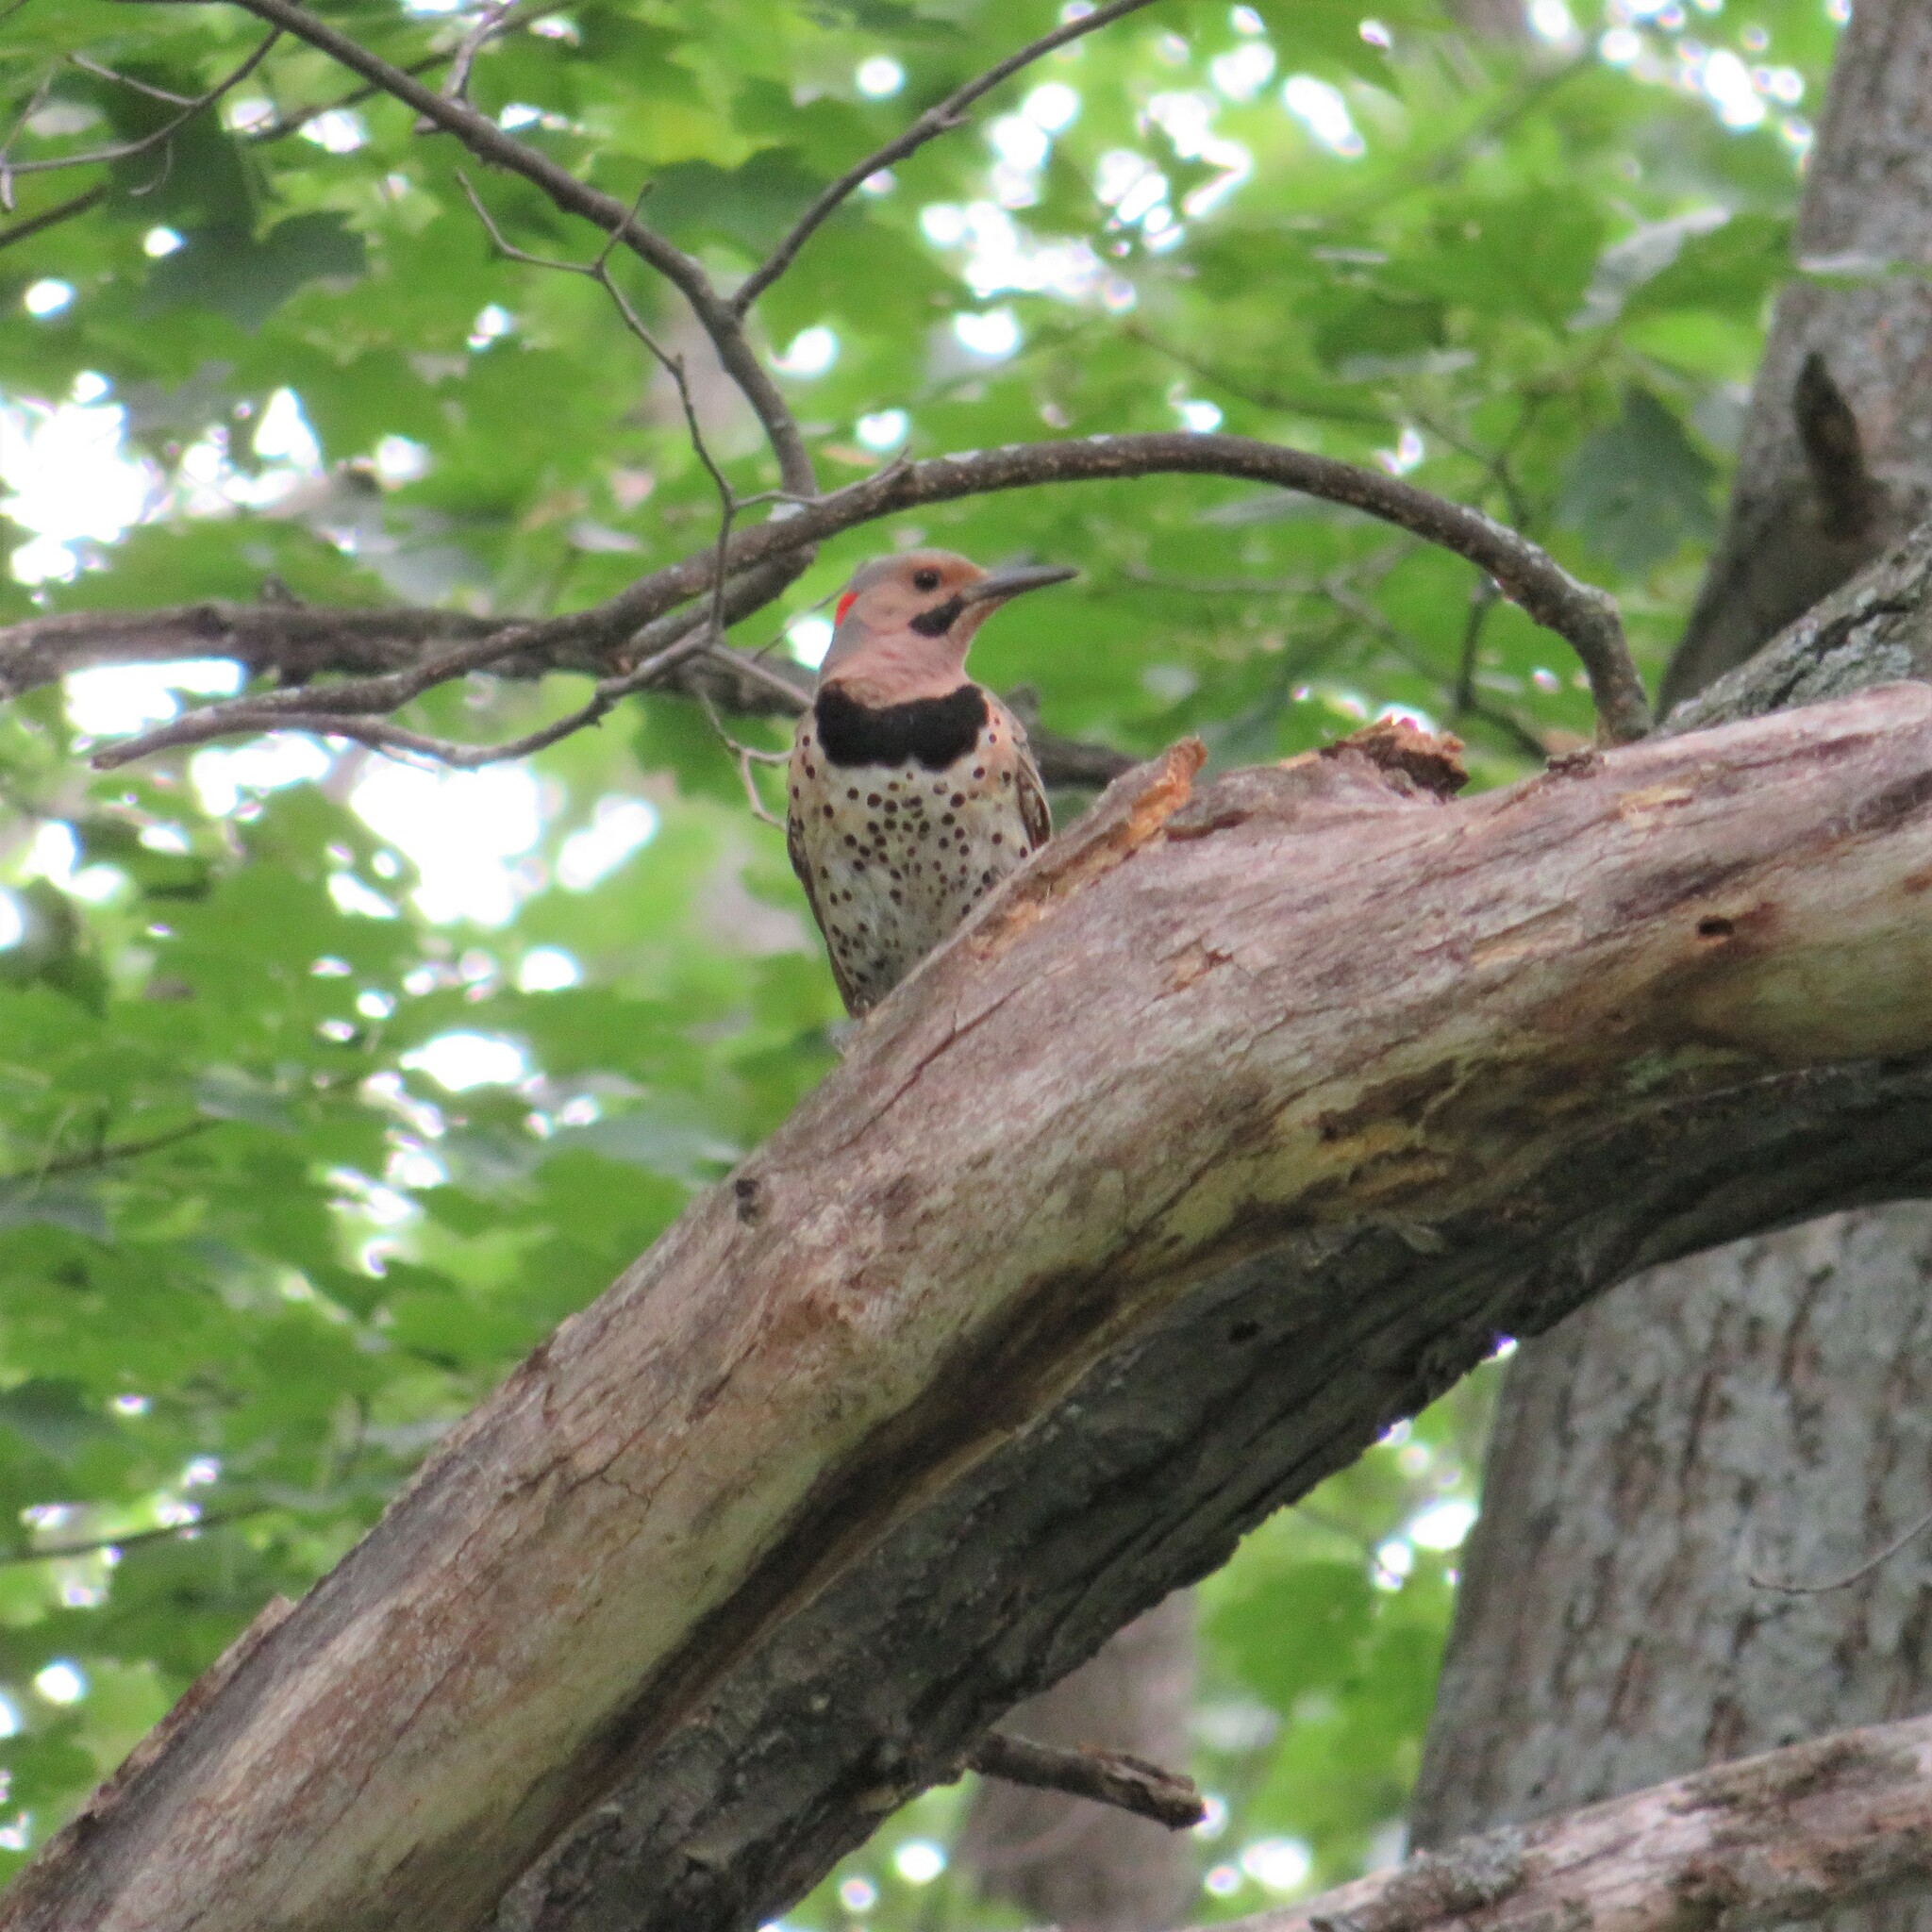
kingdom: Animalia
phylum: Chordata
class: Aves
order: Piciformes
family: Picidae
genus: Colaptes
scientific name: Colaptes auratus
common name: Northern flicker
